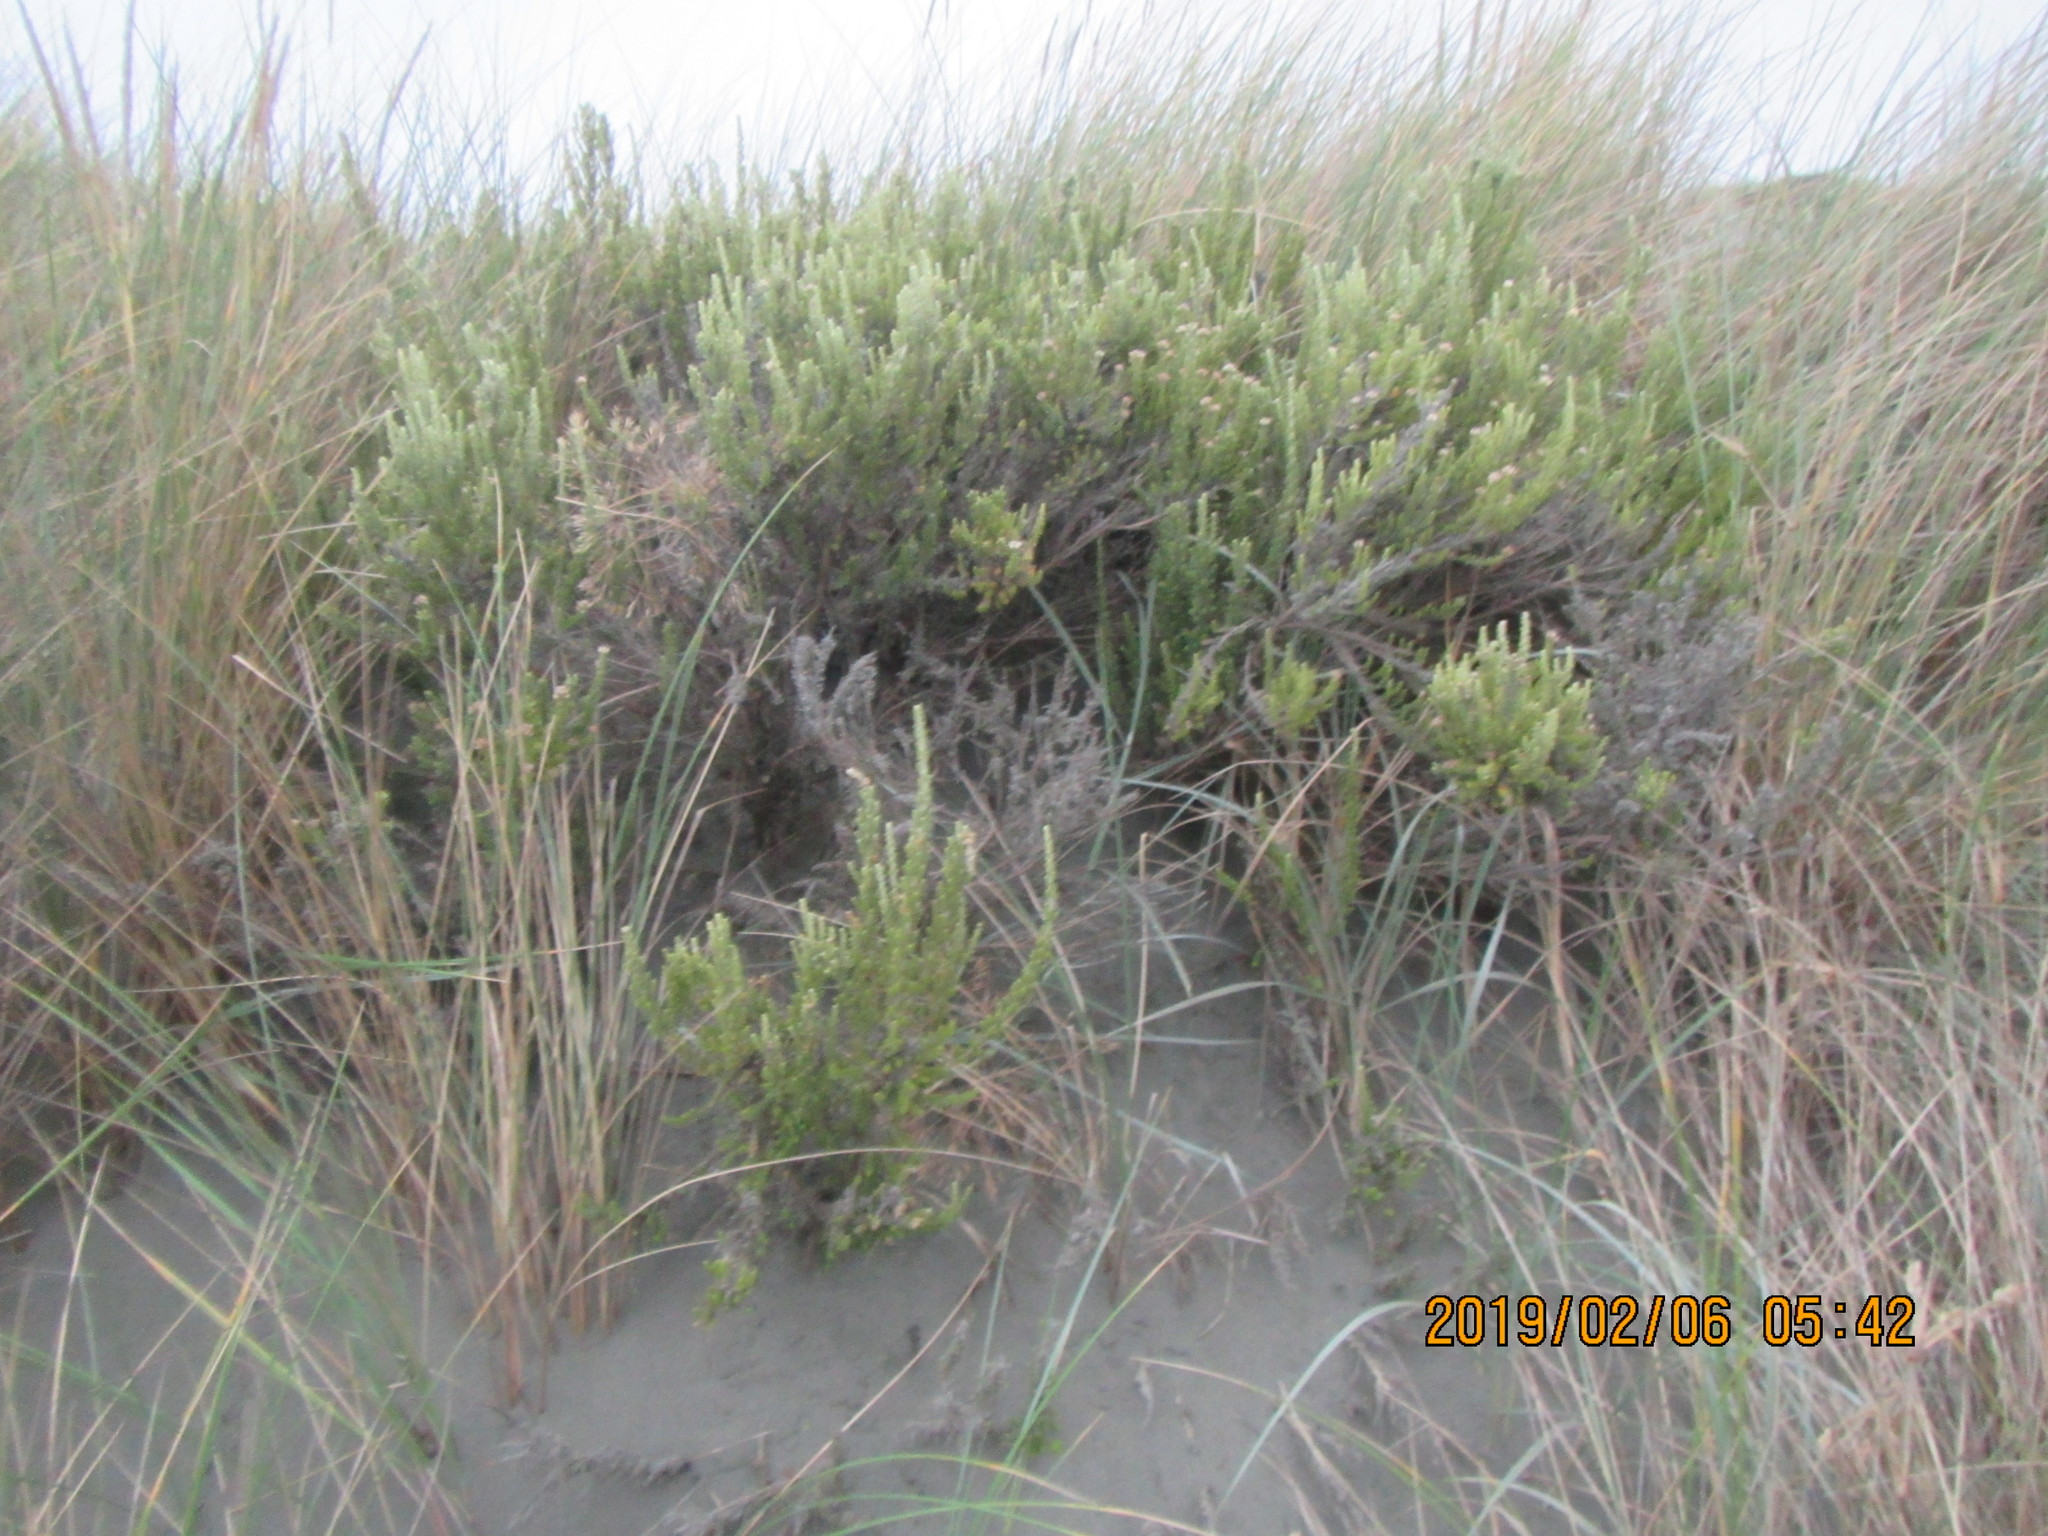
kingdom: Plantae
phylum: Tracheophyta
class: Magnoliopsida
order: Asterales
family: Asteraceae
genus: Ozothamnus
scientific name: Ozothamnus leptophyllus
